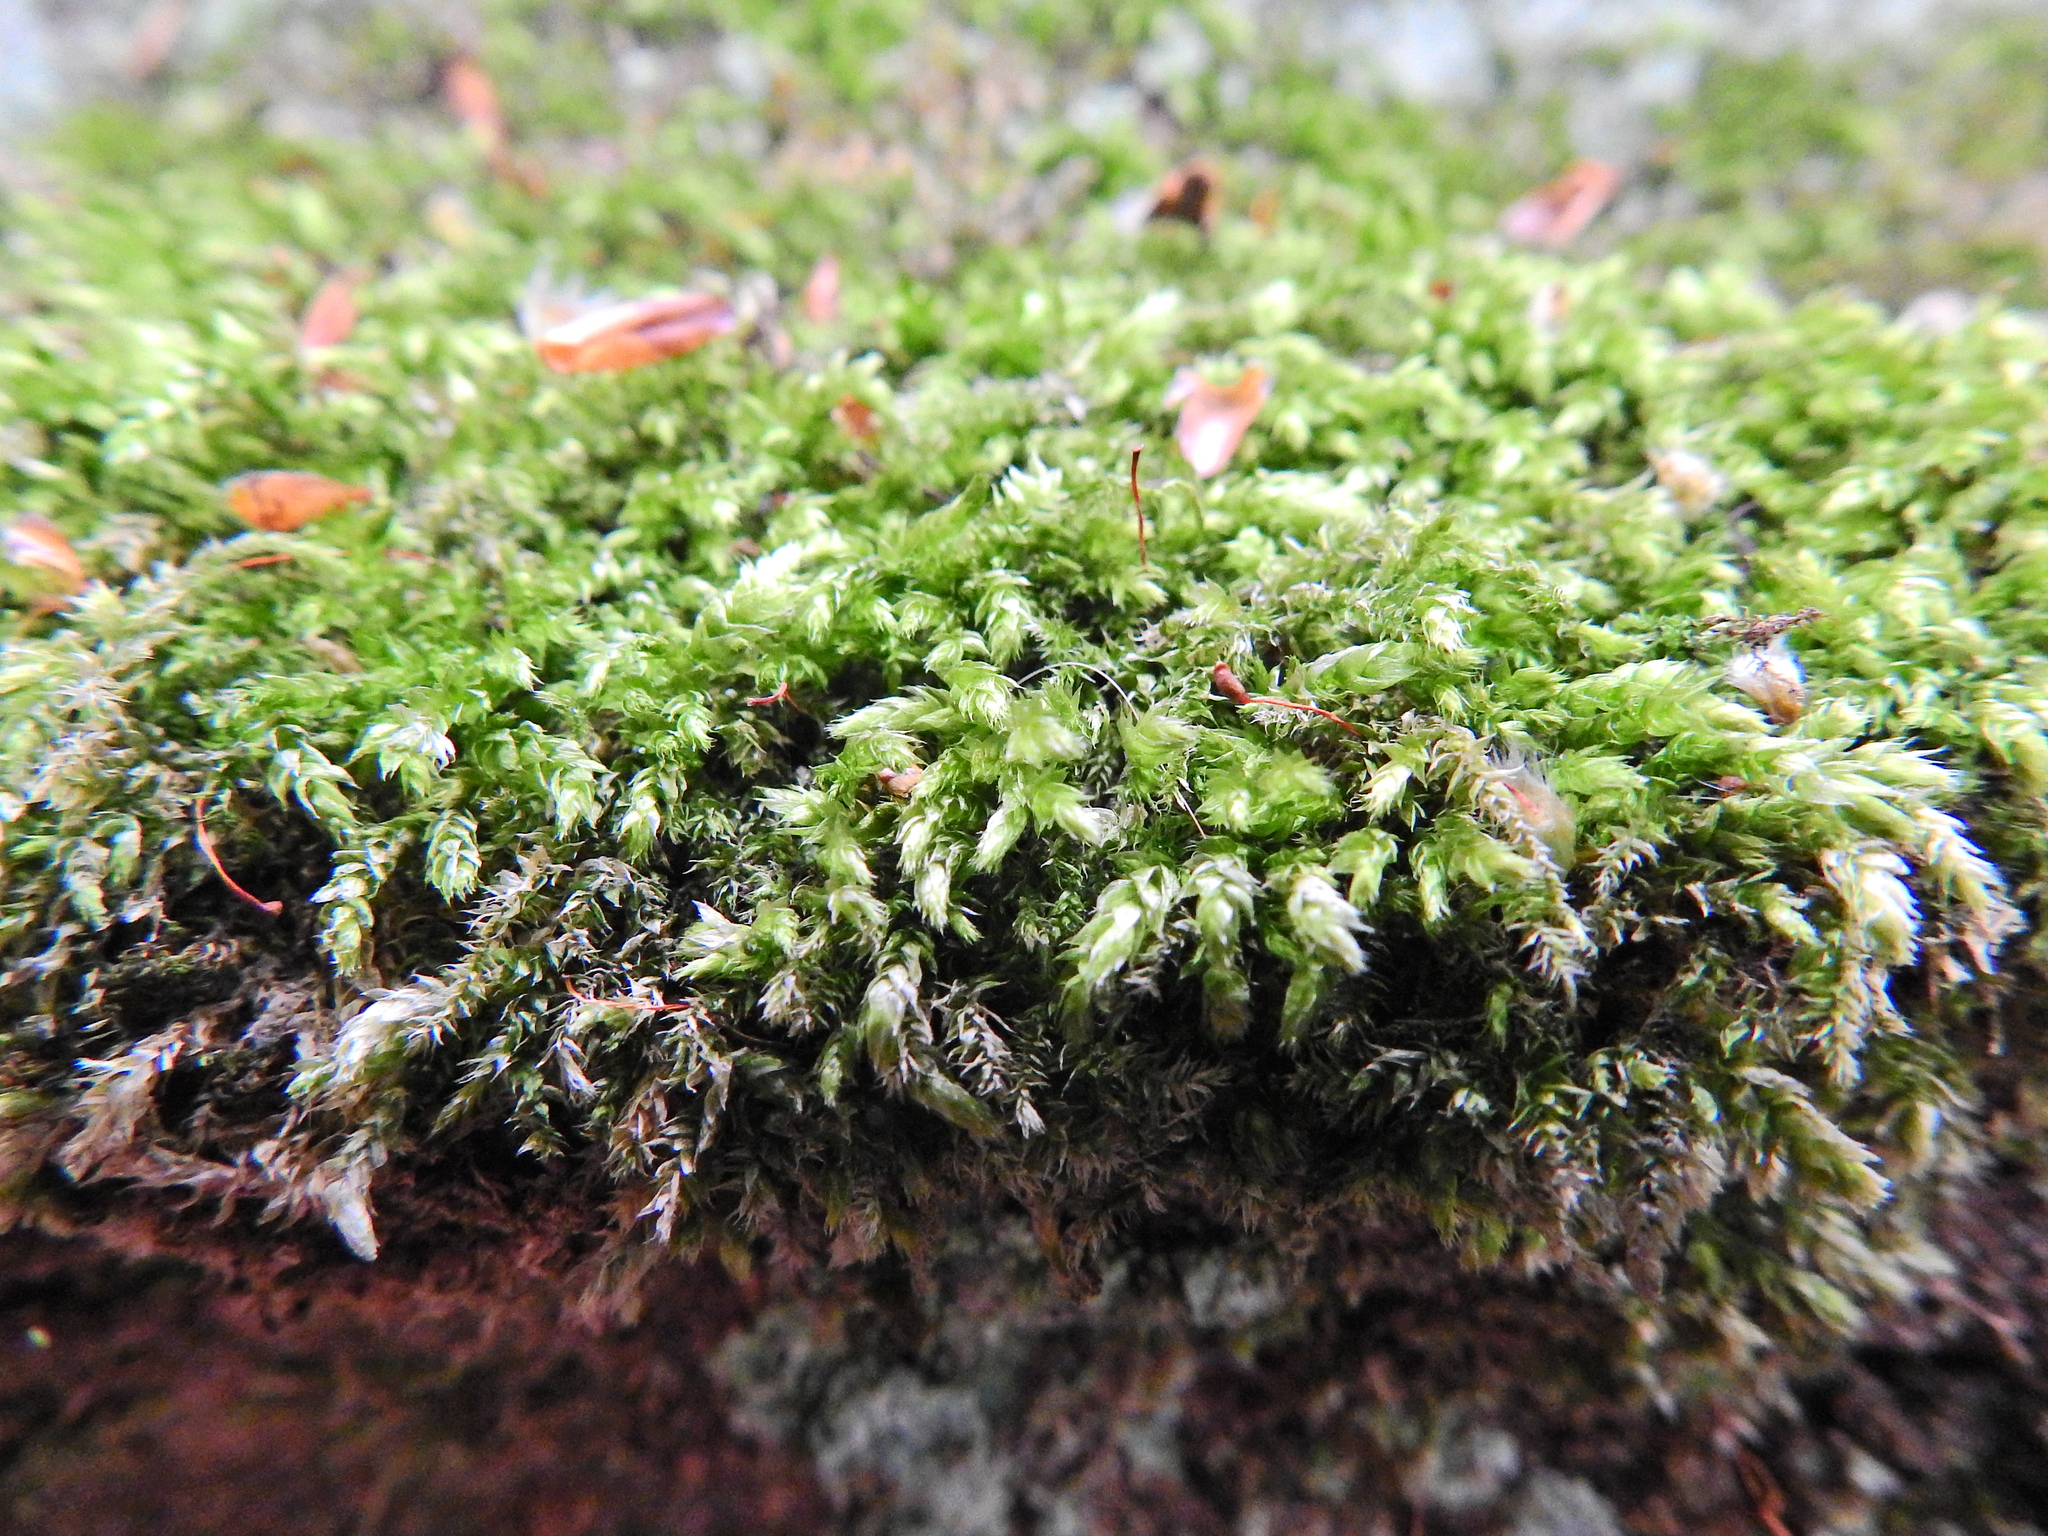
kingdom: Plantae
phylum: Bryophyta
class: Bryopsida
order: Hypnales
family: Brachytheciaceae
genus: Brachythecium
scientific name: Brachythecium rutabulum
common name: Rough-stalked feather-moss
